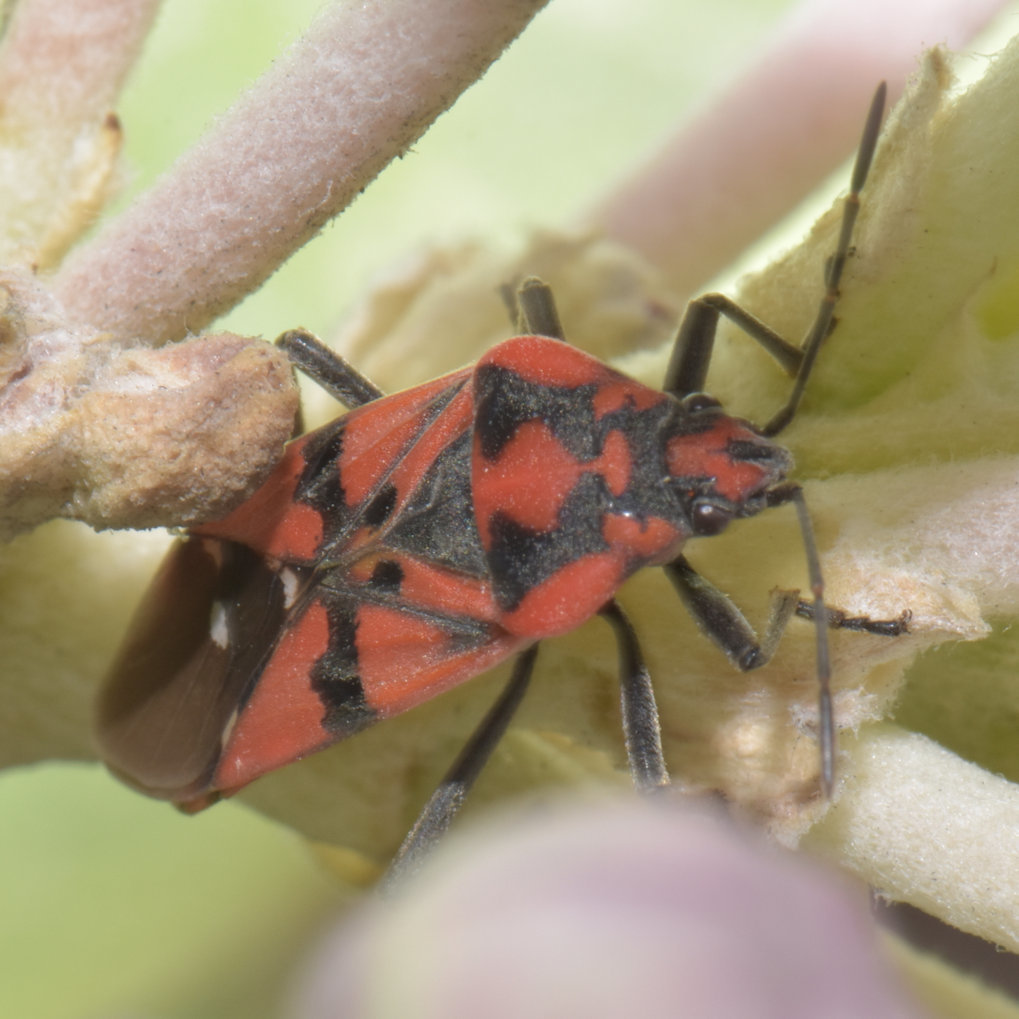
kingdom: Animalia
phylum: Arthropoda
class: Insecta
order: Hemiptera
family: Lygaeidae
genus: Spilostethus
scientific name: Spilostethus pandurus
